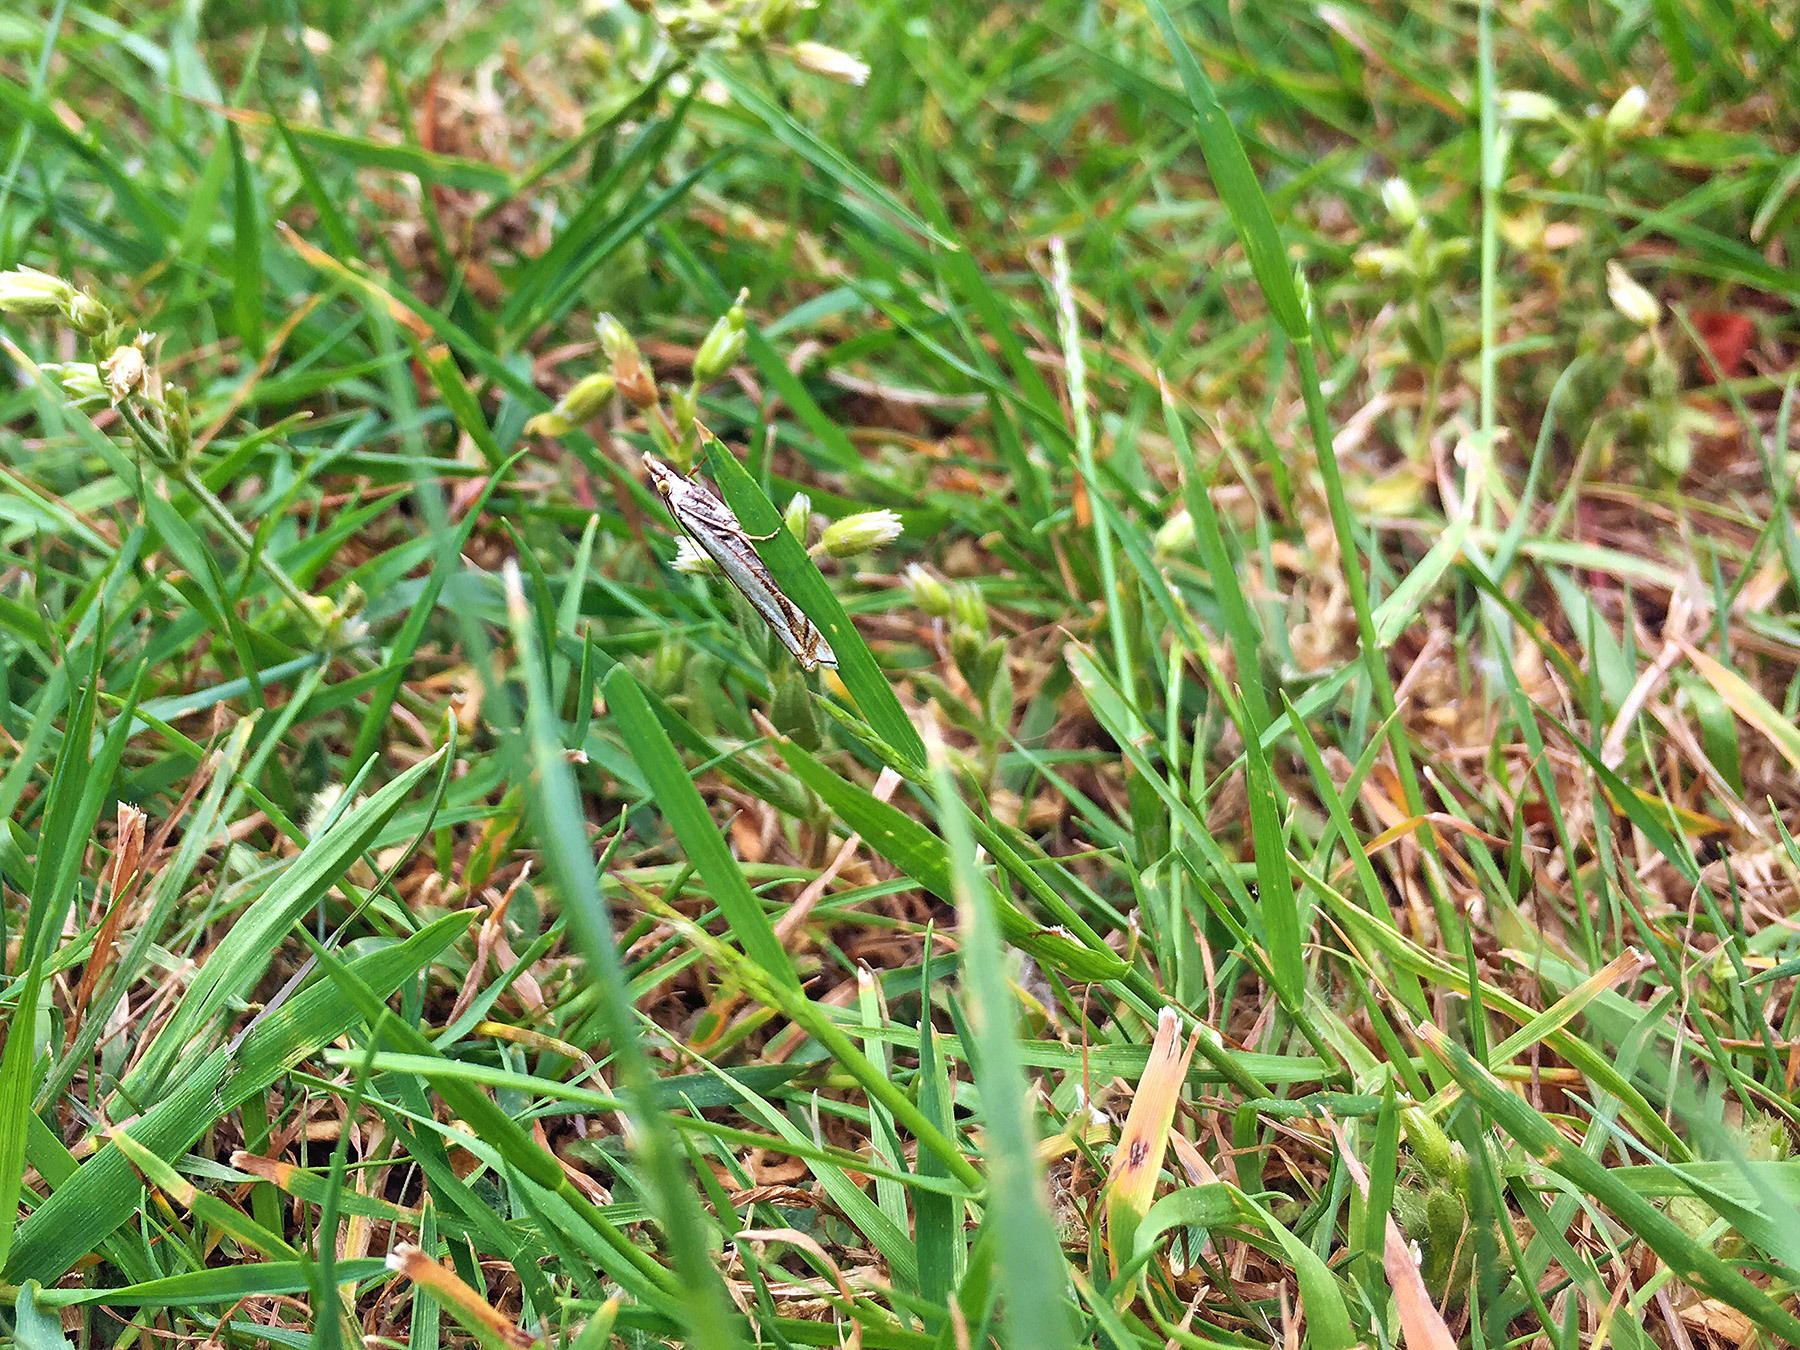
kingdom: Animalia
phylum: Arthropoda
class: Insecta
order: Lepidoptera
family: Crambidae
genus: Crambus
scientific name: Crambus pascuella
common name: Inlaid grass-veneer
